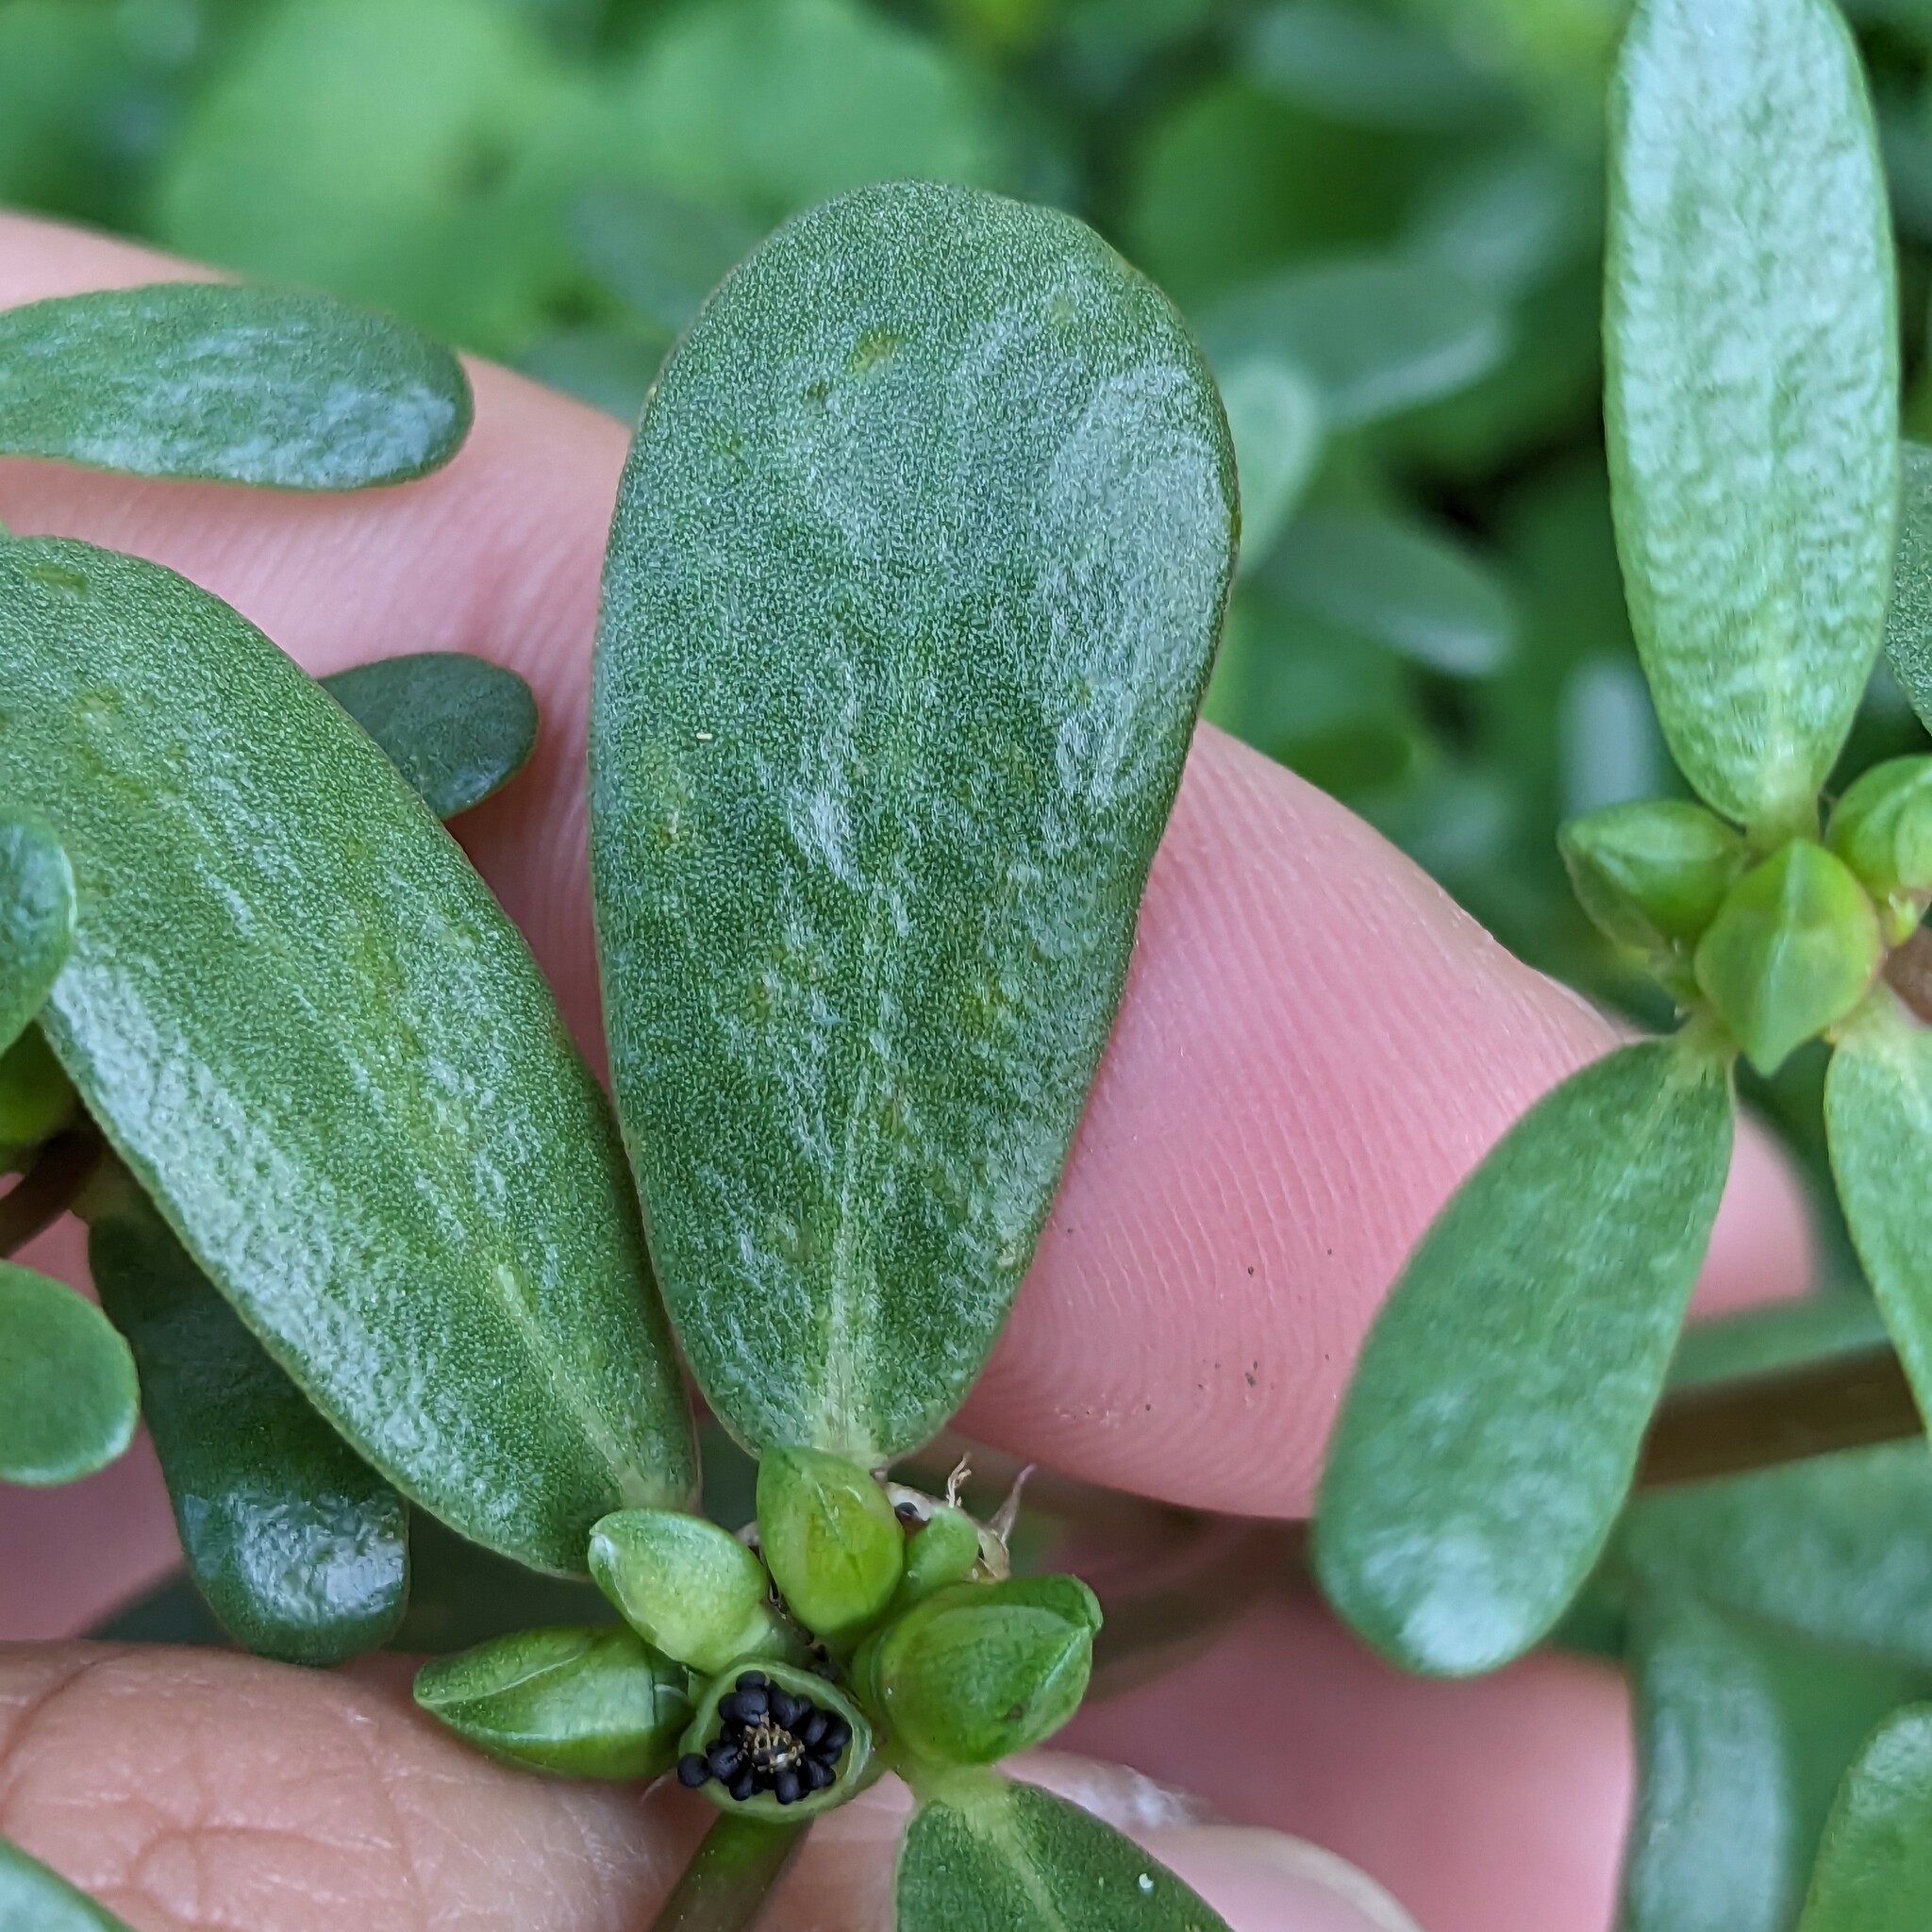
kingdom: Plantae
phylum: Tracheophyta
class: Magnoliopsida
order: Caryophyllales
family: Portulacaceae
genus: Portulaca
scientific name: Portulaca oleracea
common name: Common purslane
